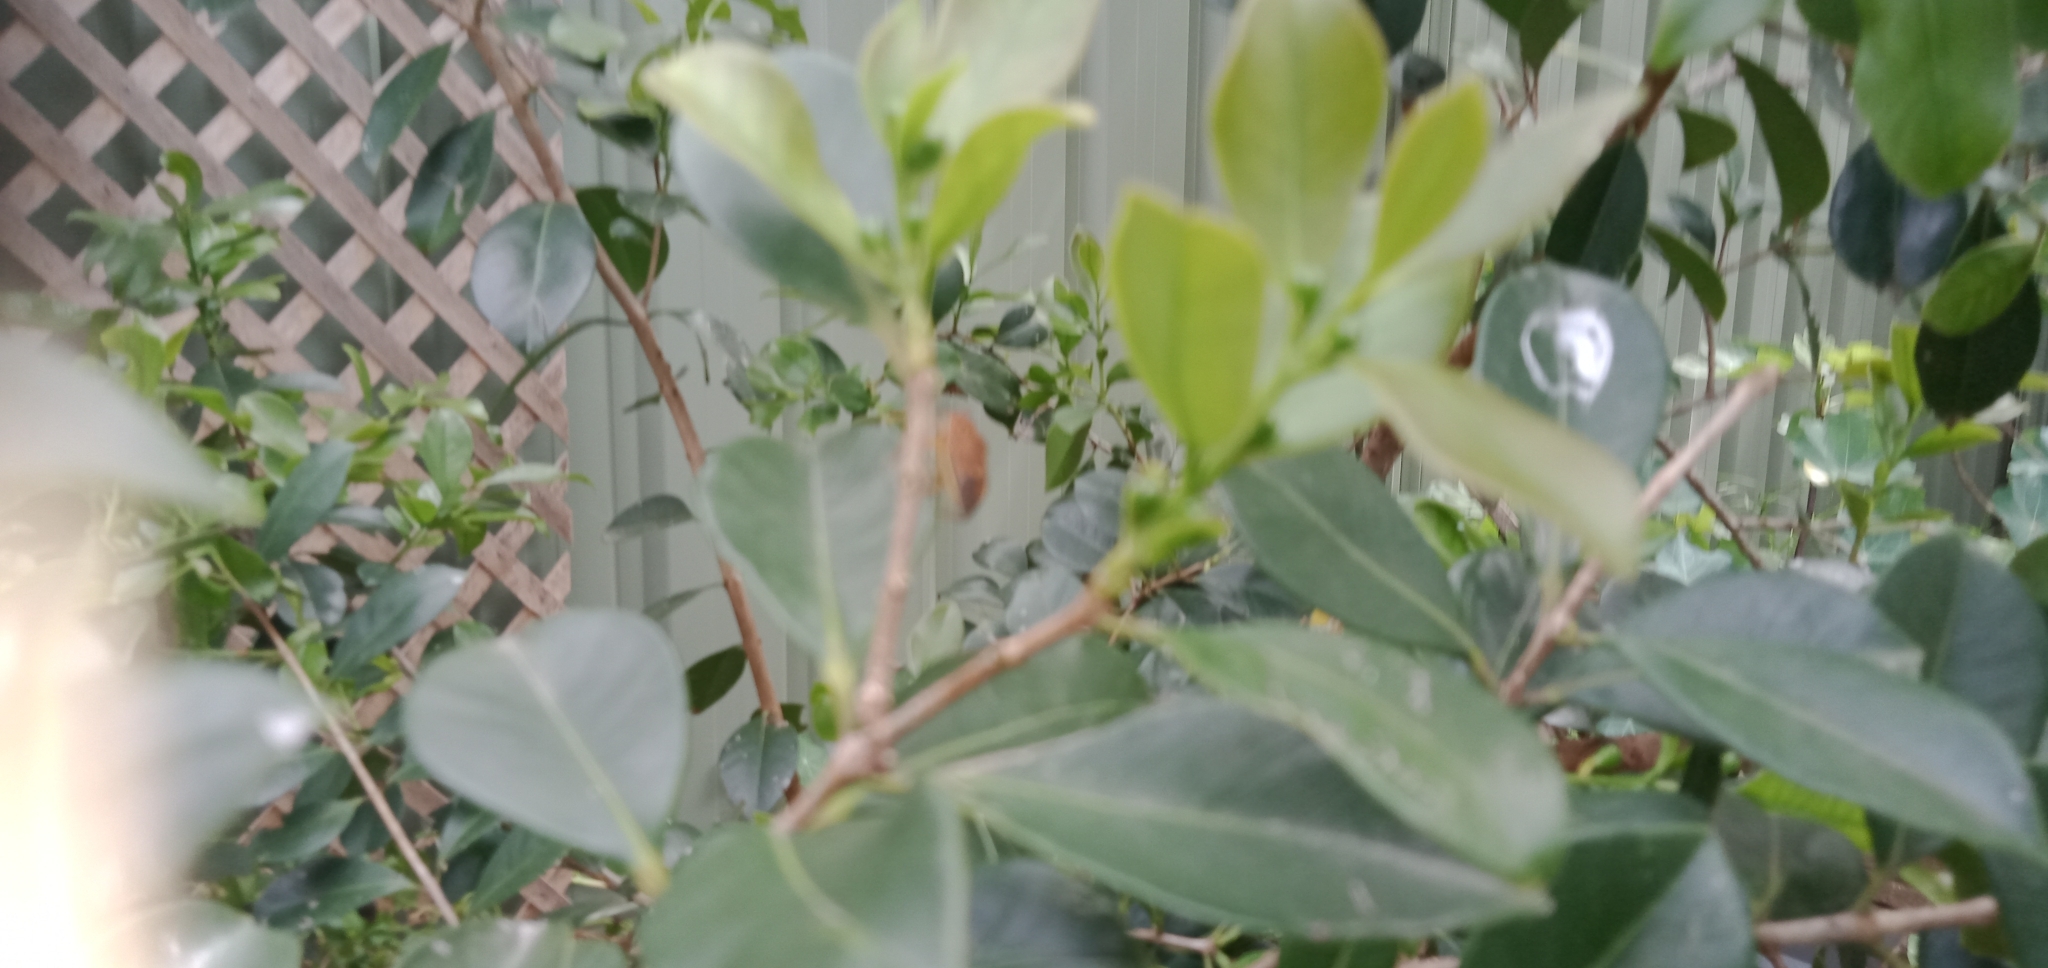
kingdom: Animalia
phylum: Arthropoda
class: Insecta
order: Hemiptera
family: Pentatomidae
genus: Poecilometis
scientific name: Poecilometis
